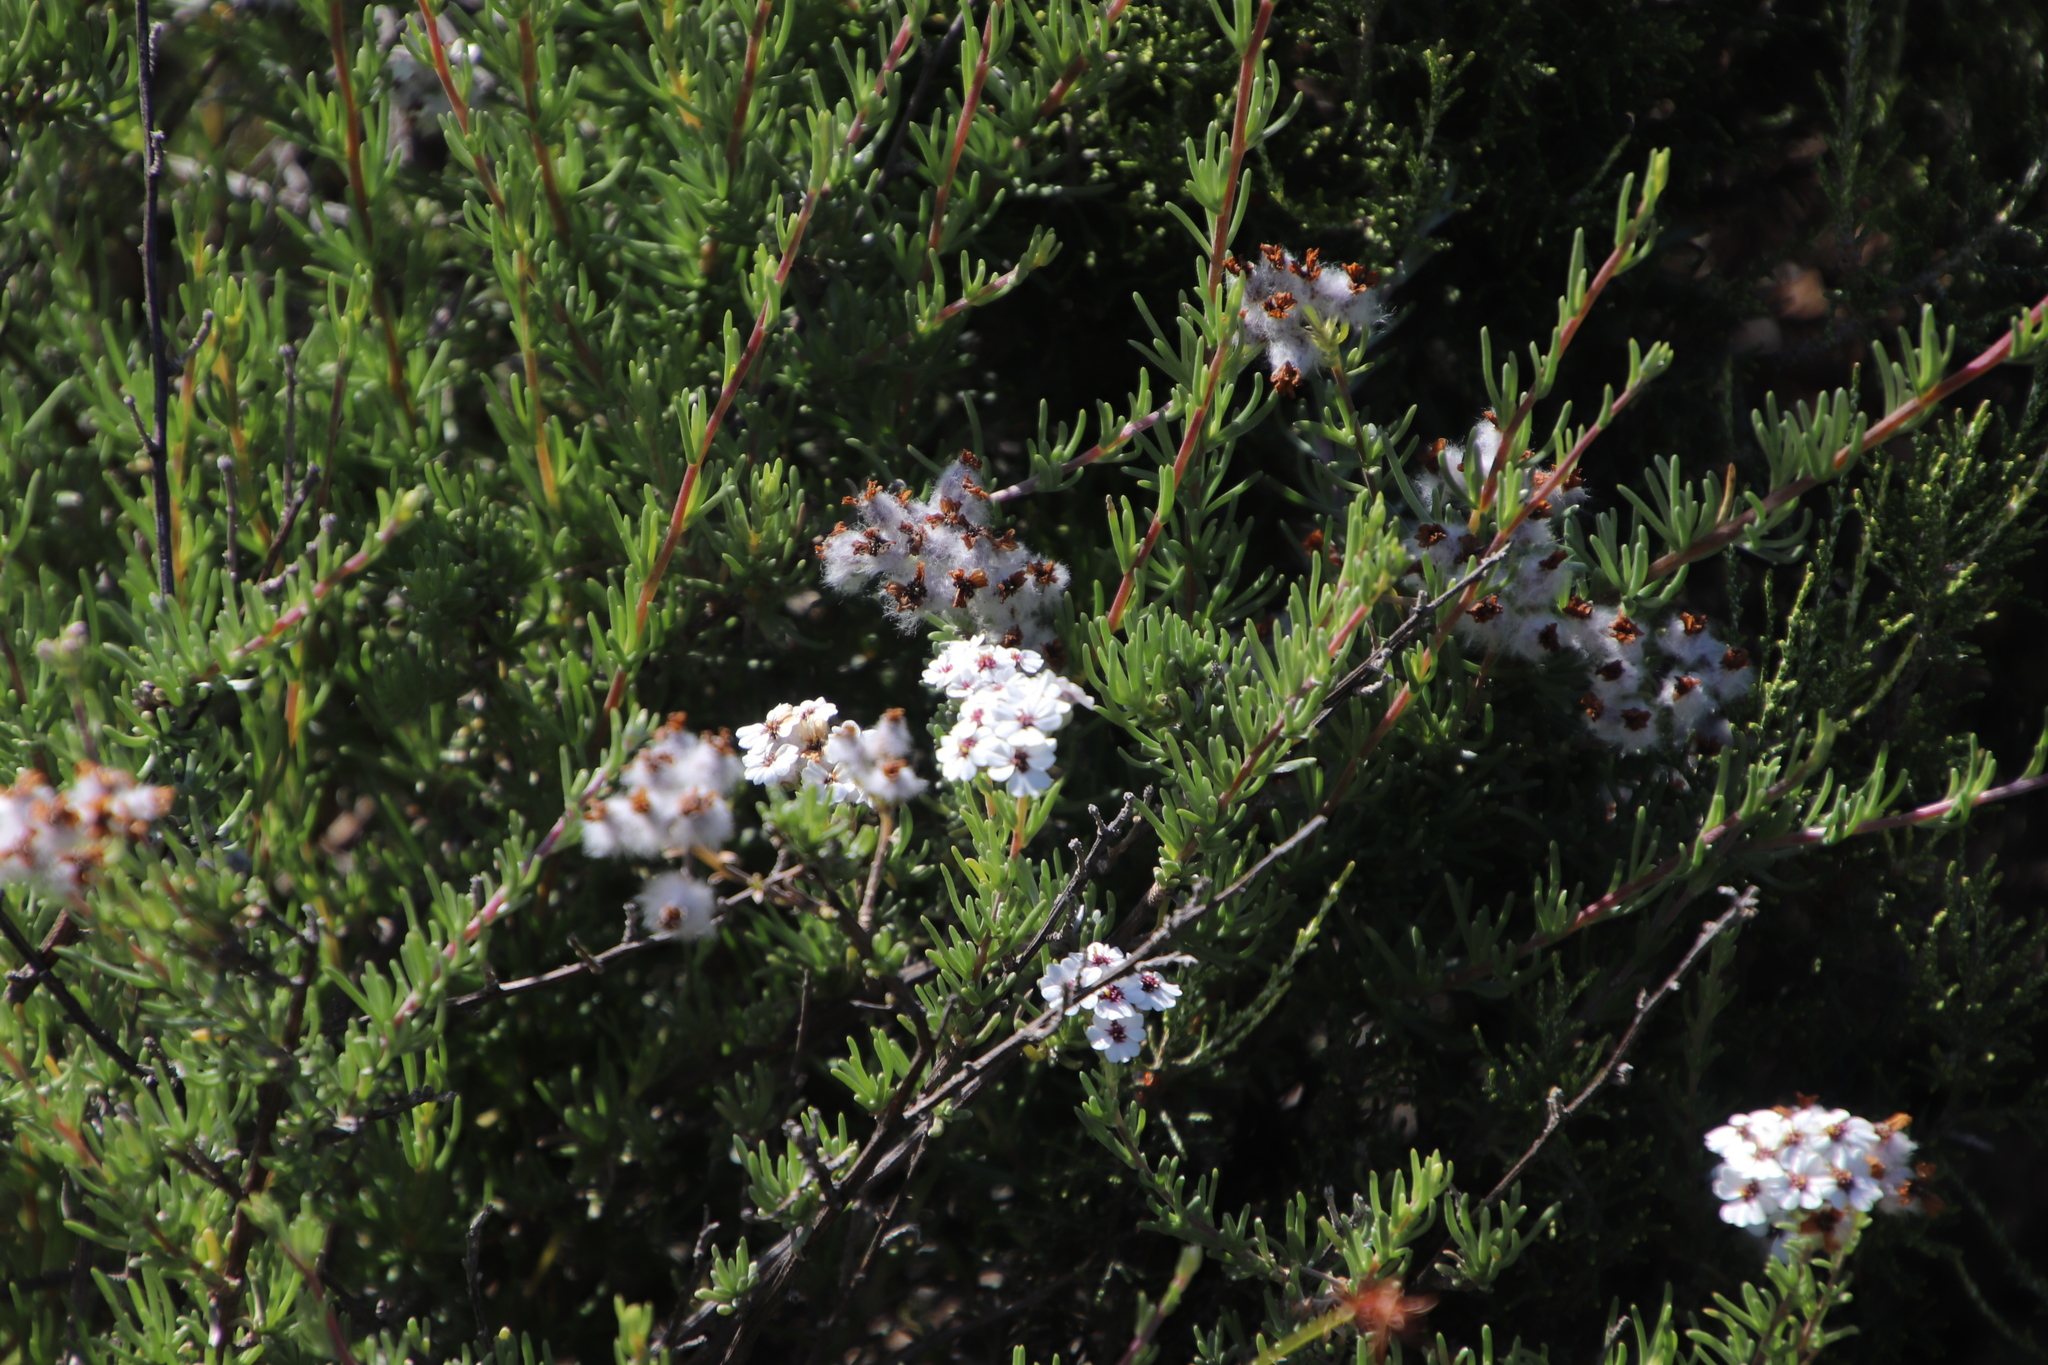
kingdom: Plantae
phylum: Tracheophyta
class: Magnoliopsida
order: Asterales
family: Asteraceae
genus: Eriocephalus
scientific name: Eriocephalus africanus
